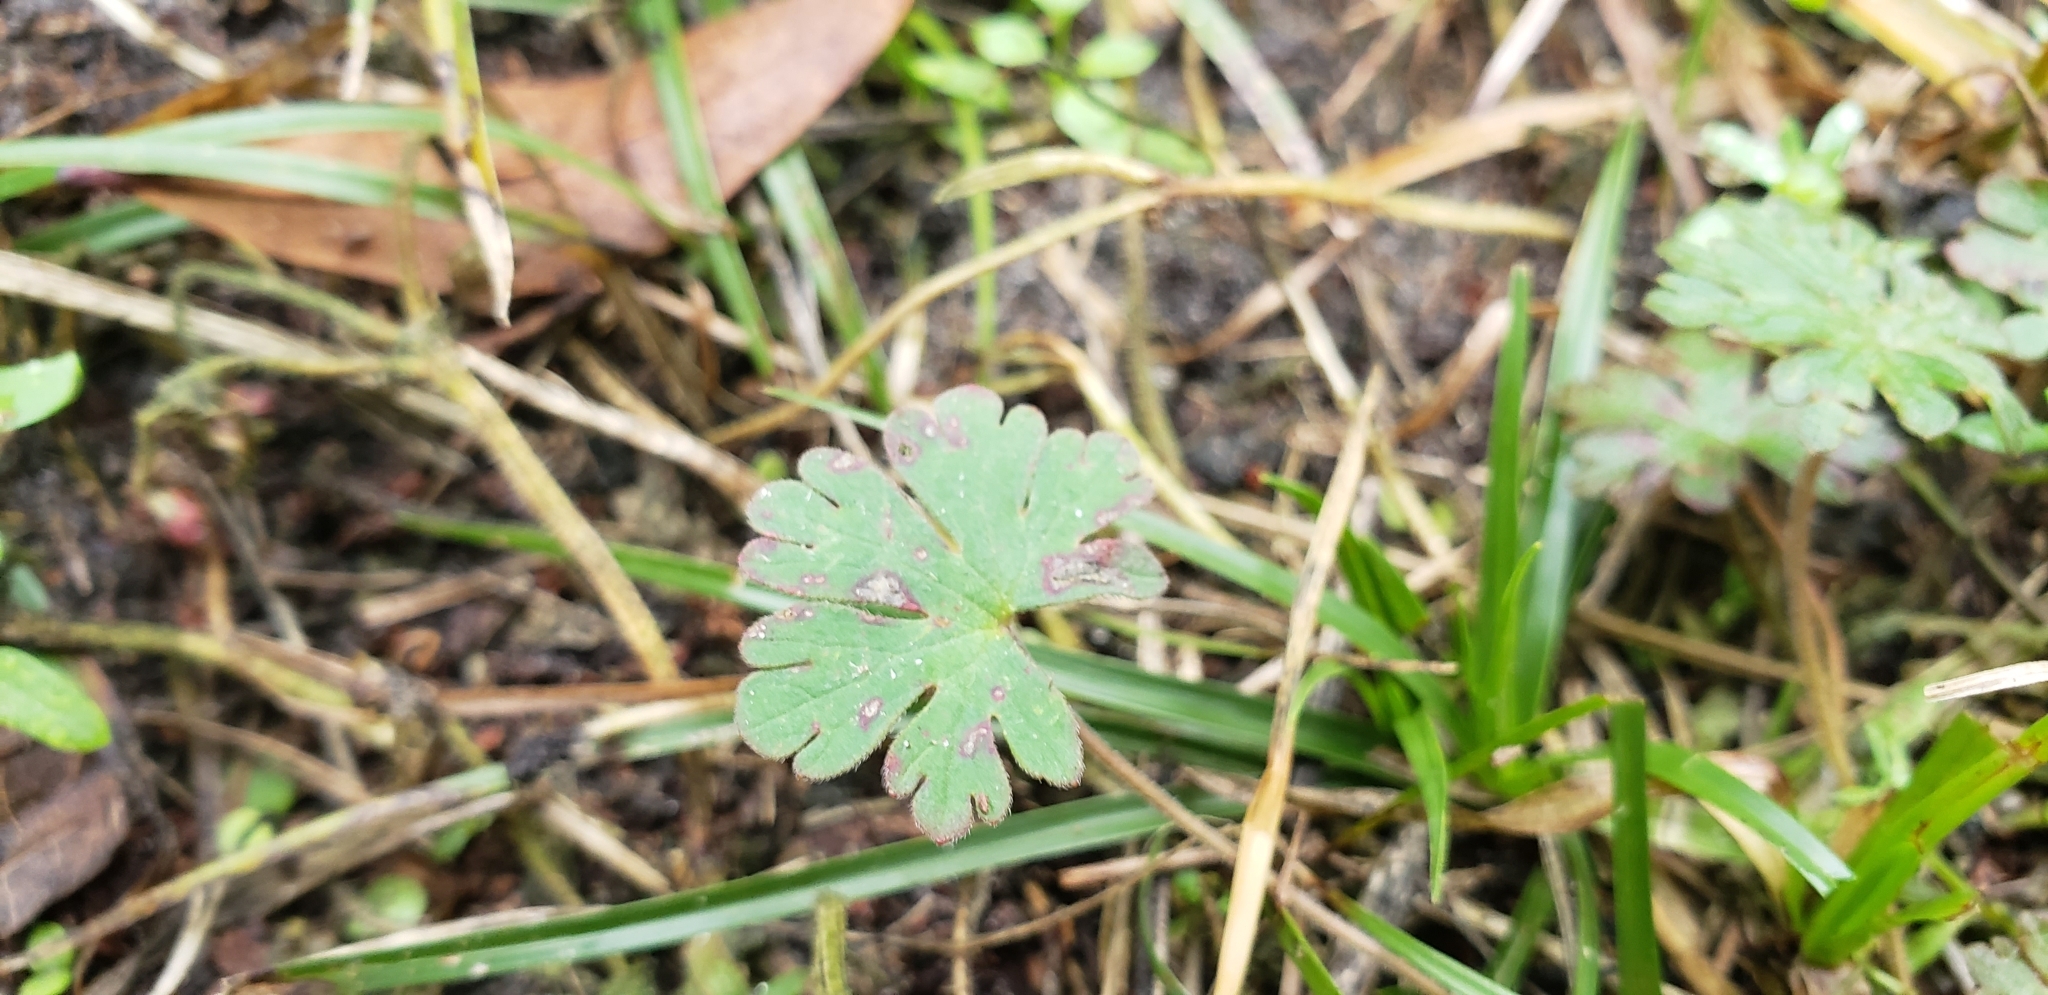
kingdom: Plantae
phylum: Tracheophyta
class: Magnoliopsida
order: Geraniales
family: Geraniaceae
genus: Geranium
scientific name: Geranium carolinianum
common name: Carolina crane's-bill
